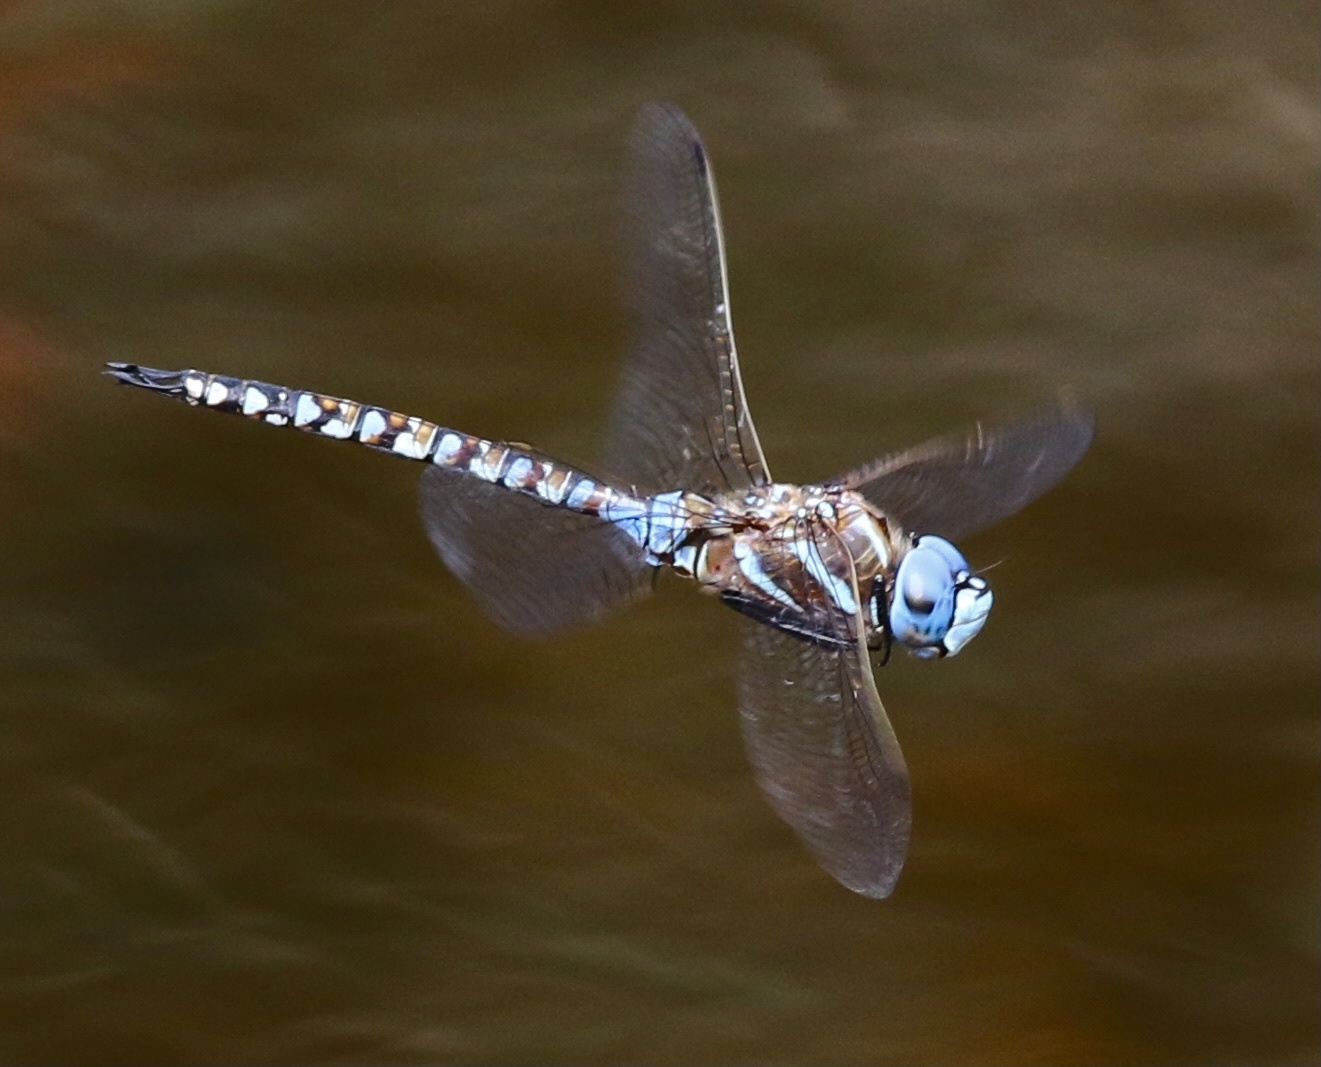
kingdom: Animalia
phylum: Arthropoda
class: Insecta
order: Odonata
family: Aeshnidae
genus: Rhionaeschna
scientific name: Rhionaeschna multicolor
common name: Blue-eyed darner
